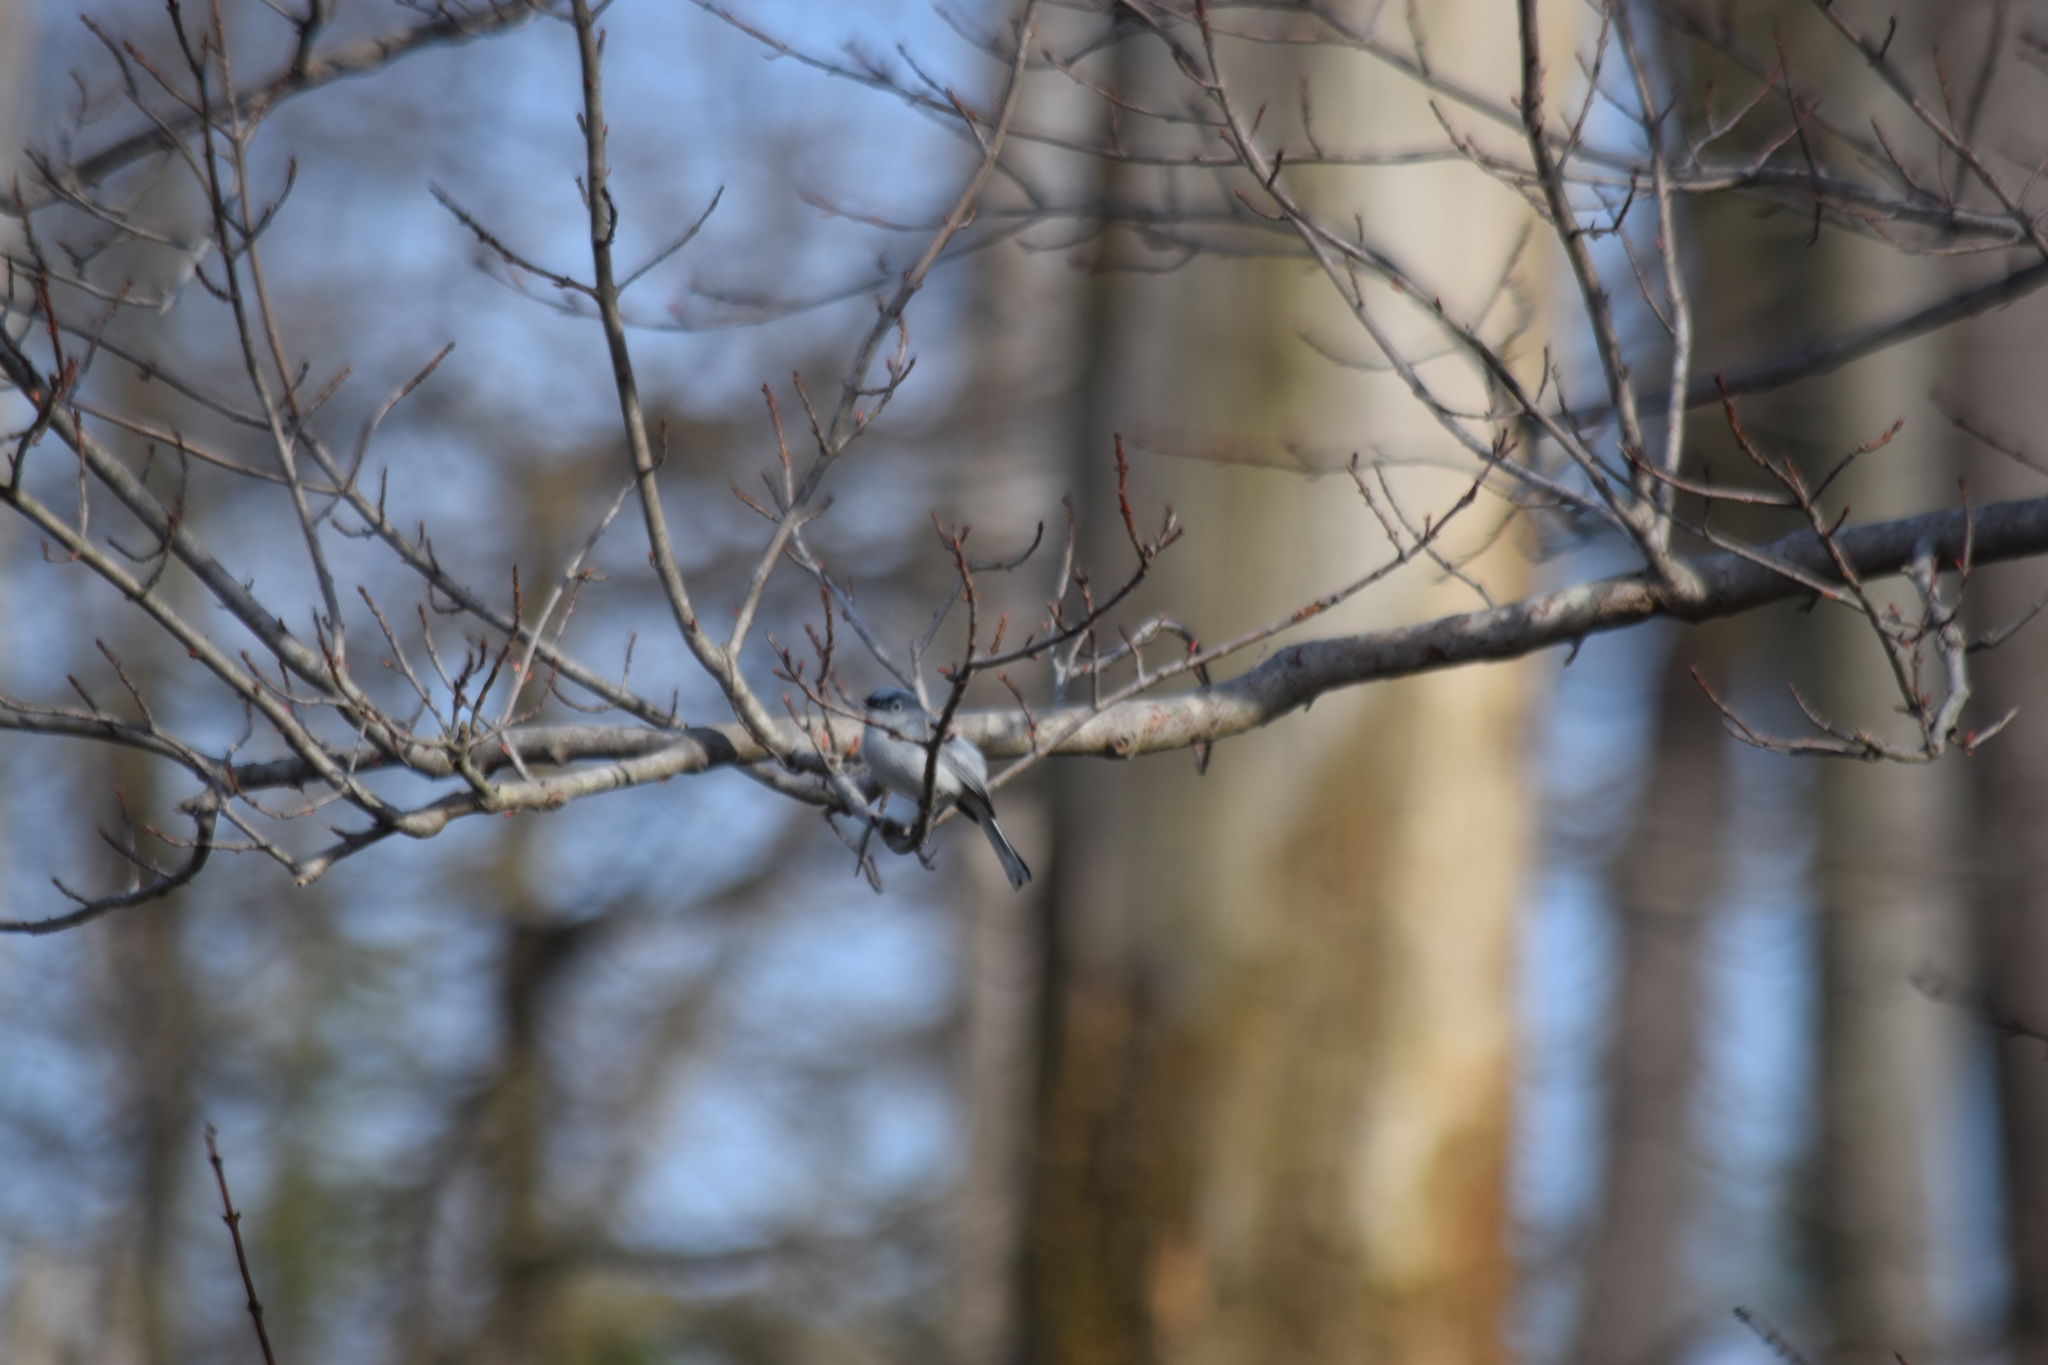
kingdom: Animalia
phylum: Chordata
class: Aves
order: Passeriformes
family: Polioptilidae
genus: Polioptila
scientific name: Polioptila caerulea
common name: Blue-gray gnatcatcher
